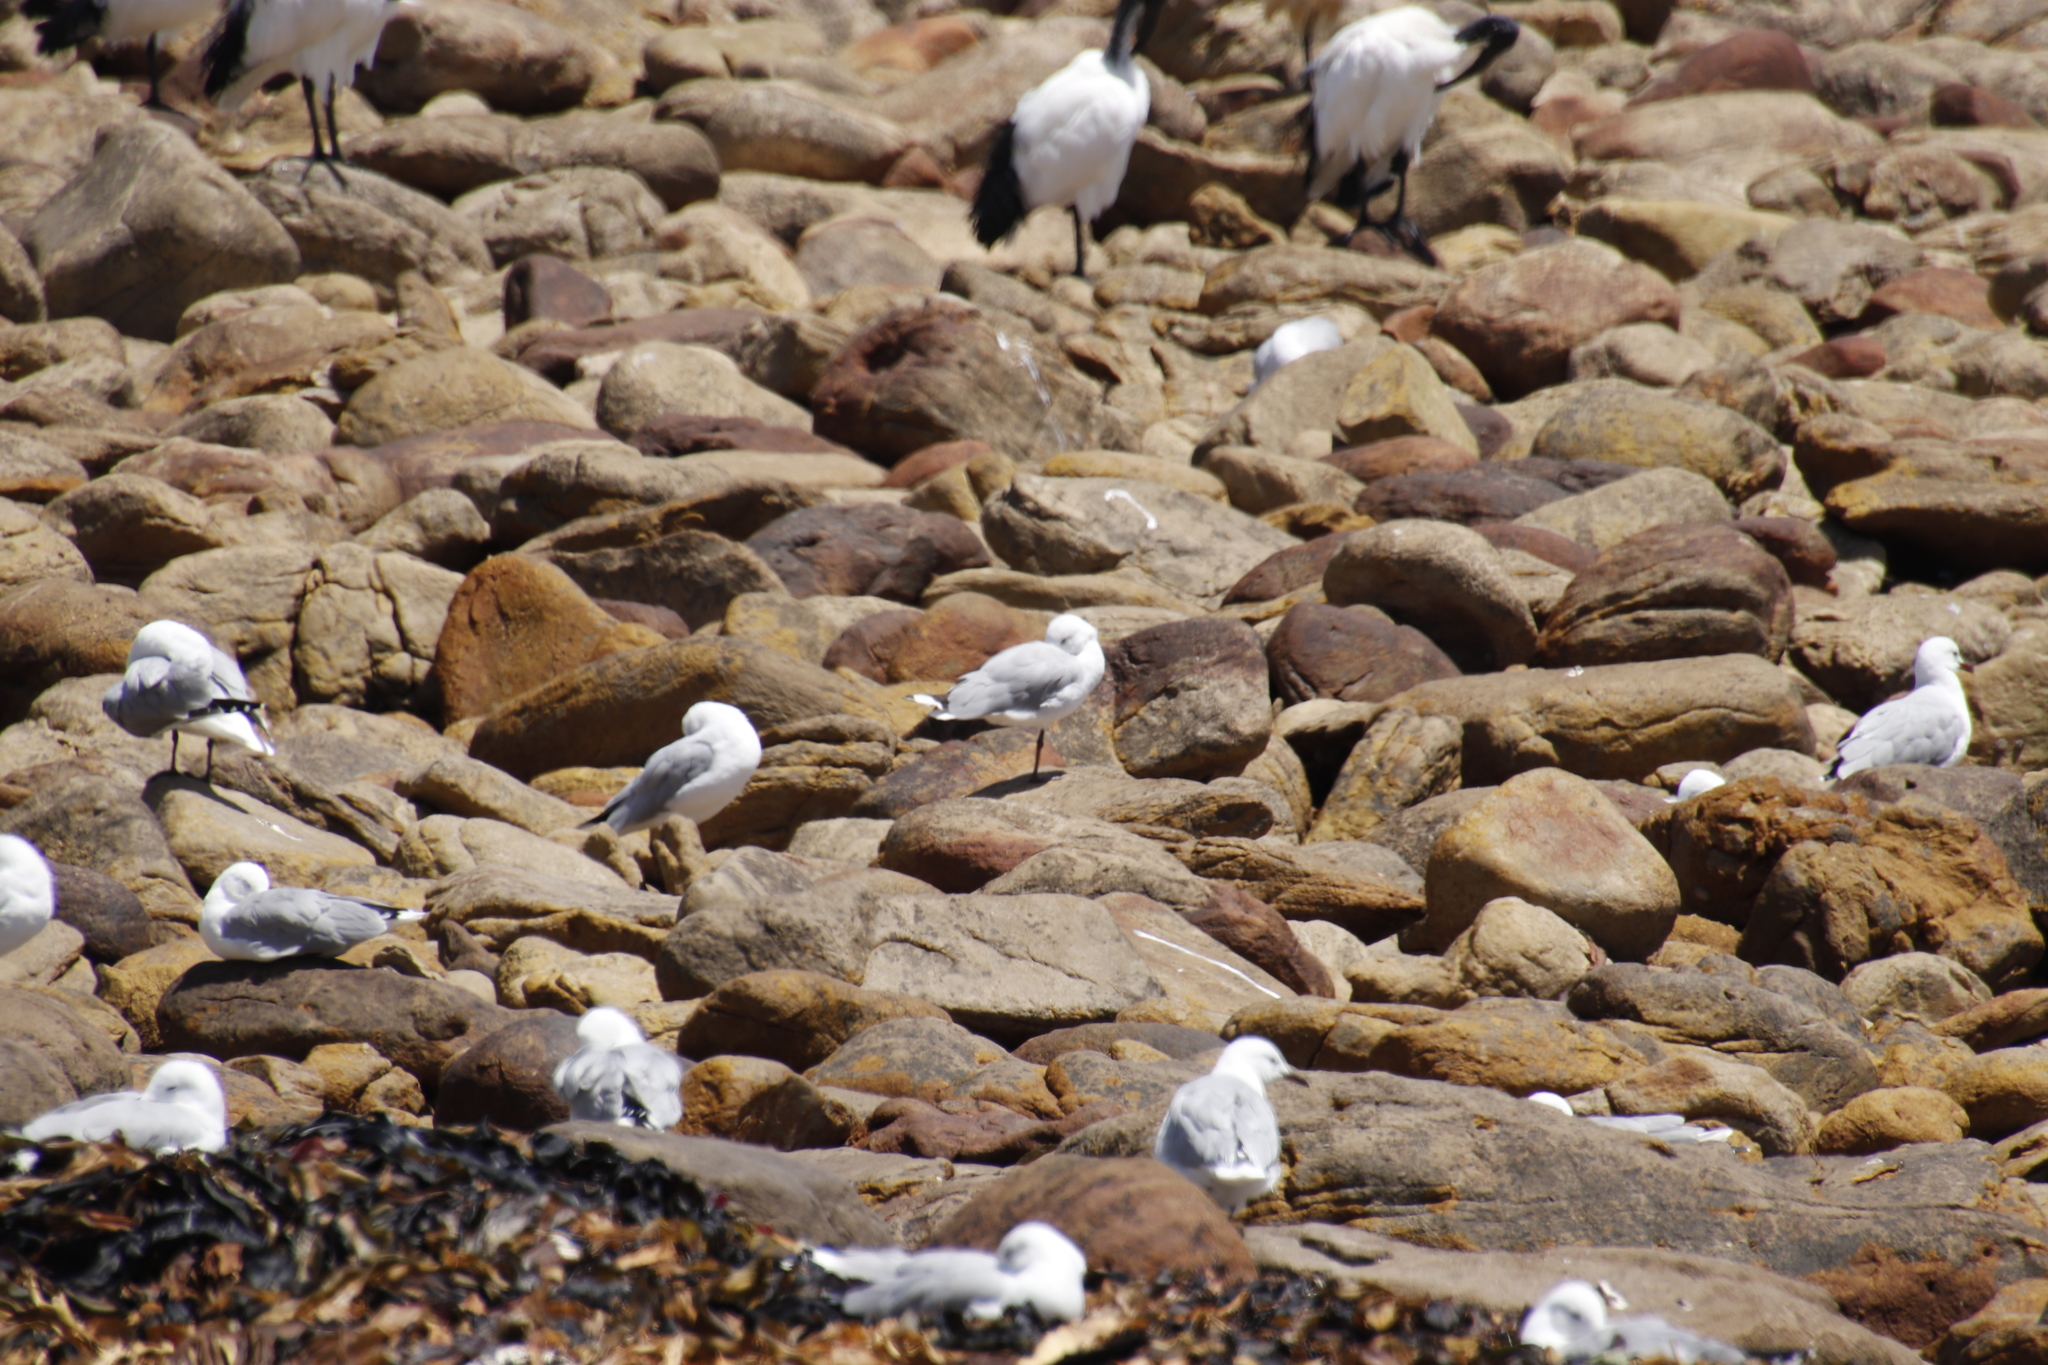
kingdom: Animalia
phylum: Chordata
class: Aves
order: Charadriiformes
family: Laridae
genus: Chroicocephalus
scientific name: Chroicocephalus hartlaubii
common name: Hartlaub's gull
